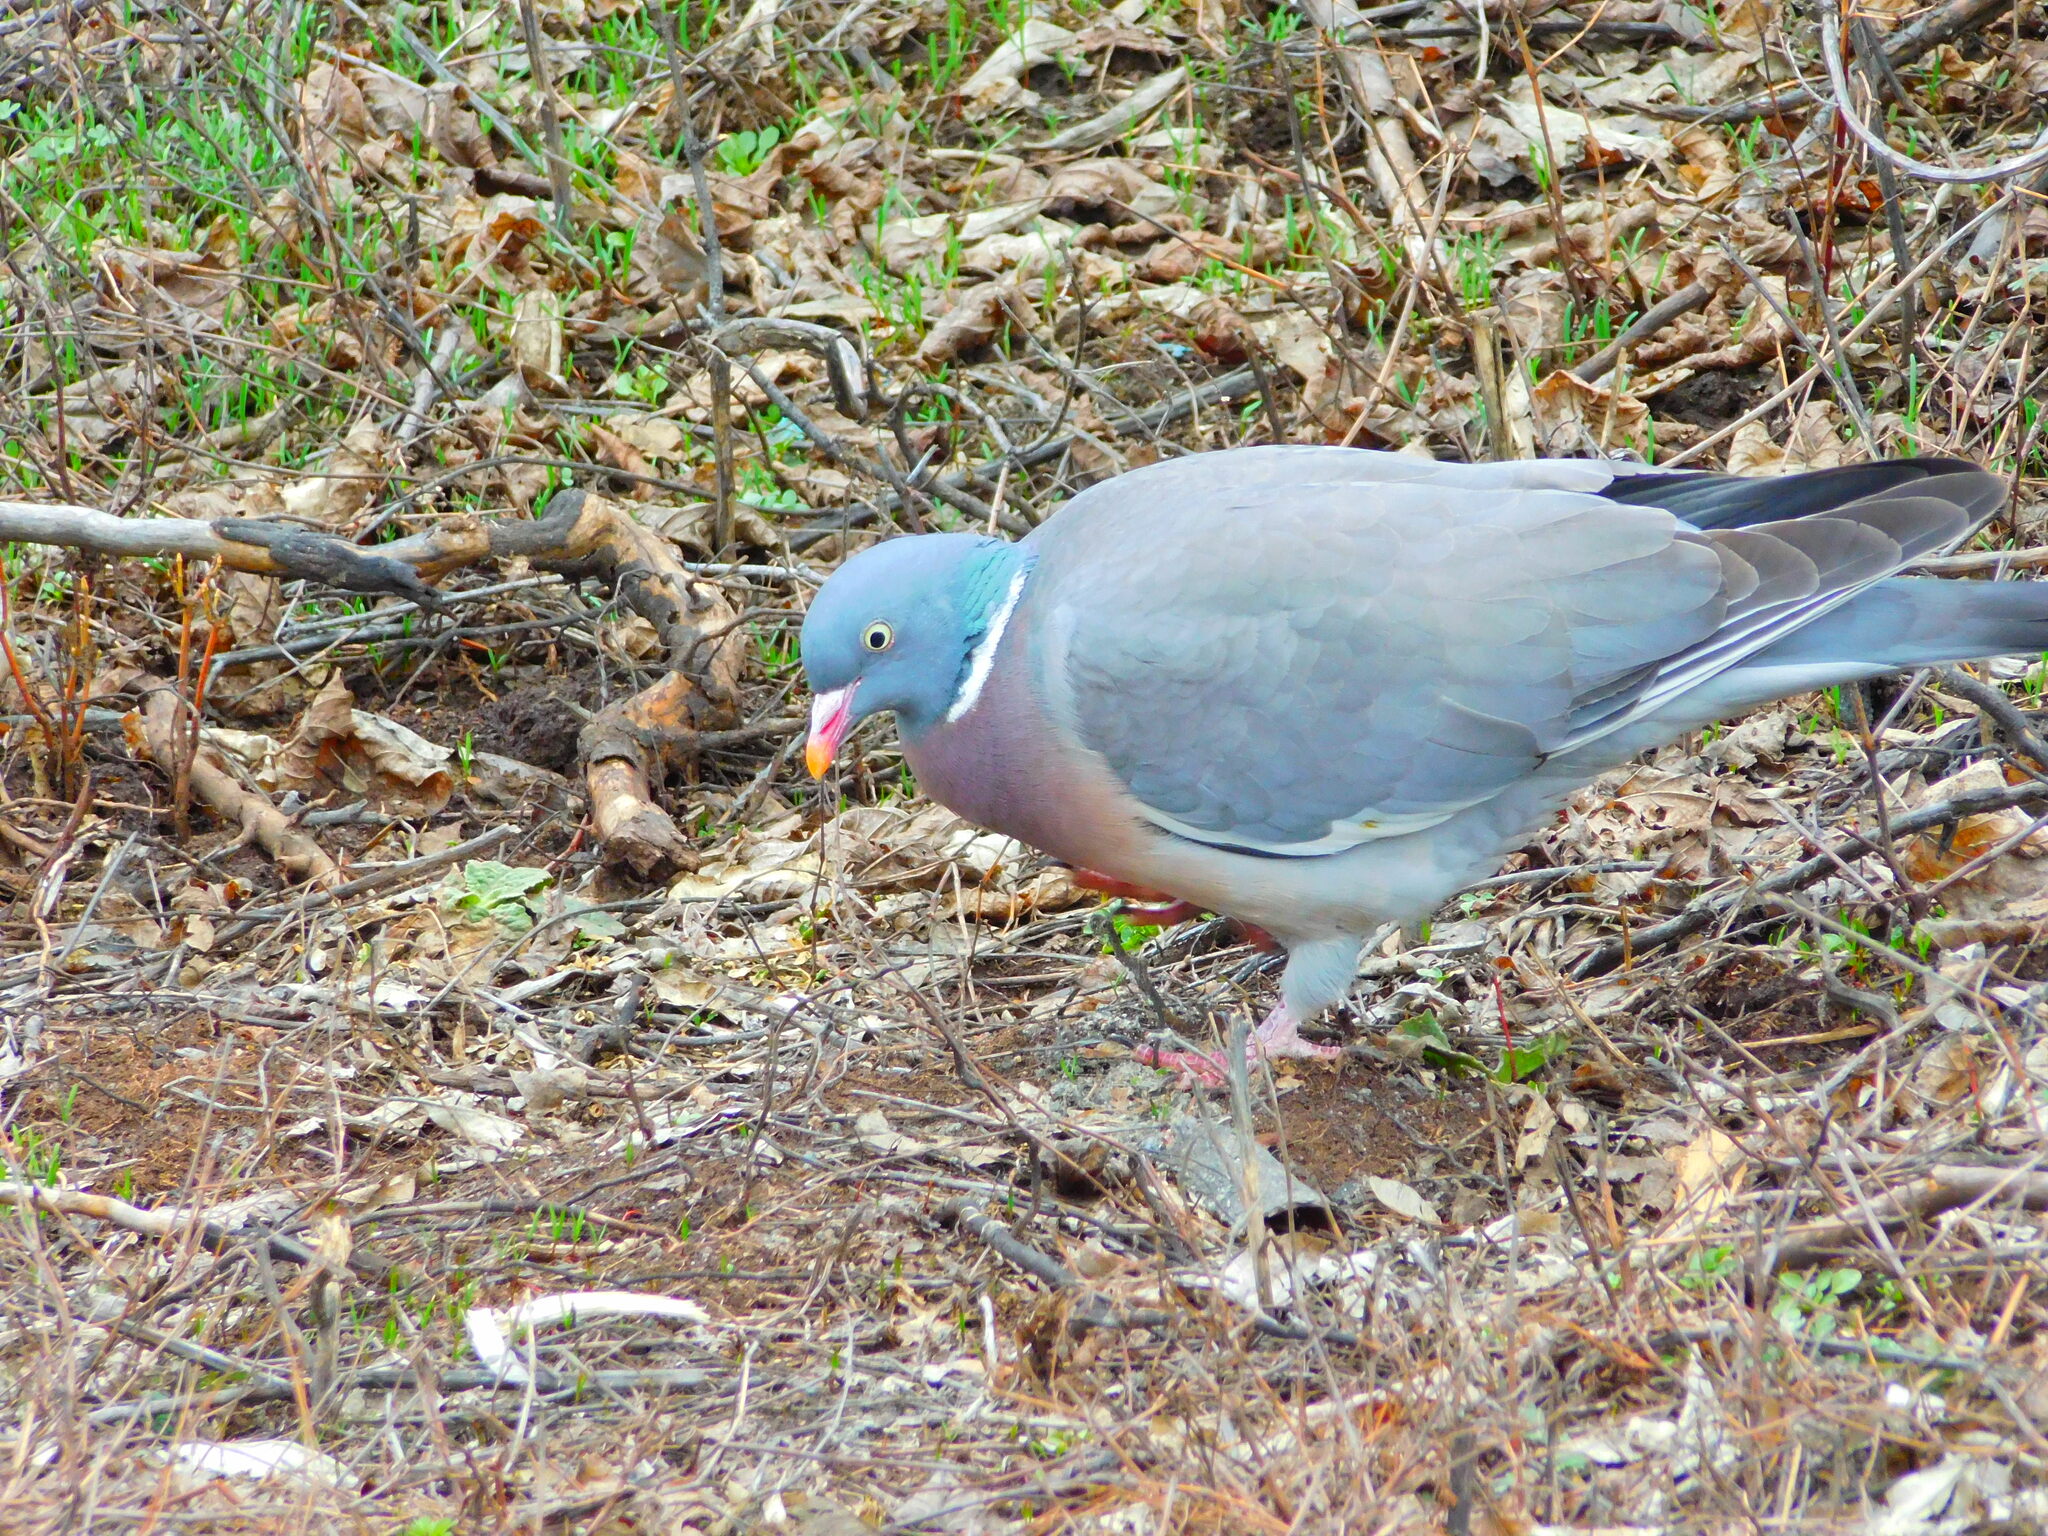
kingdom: Animalia
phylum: Chordata
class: Aves
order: Columbiformes
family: Columbidae
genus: Columba
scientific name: Columba palumbus
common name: Common wood pigeon
